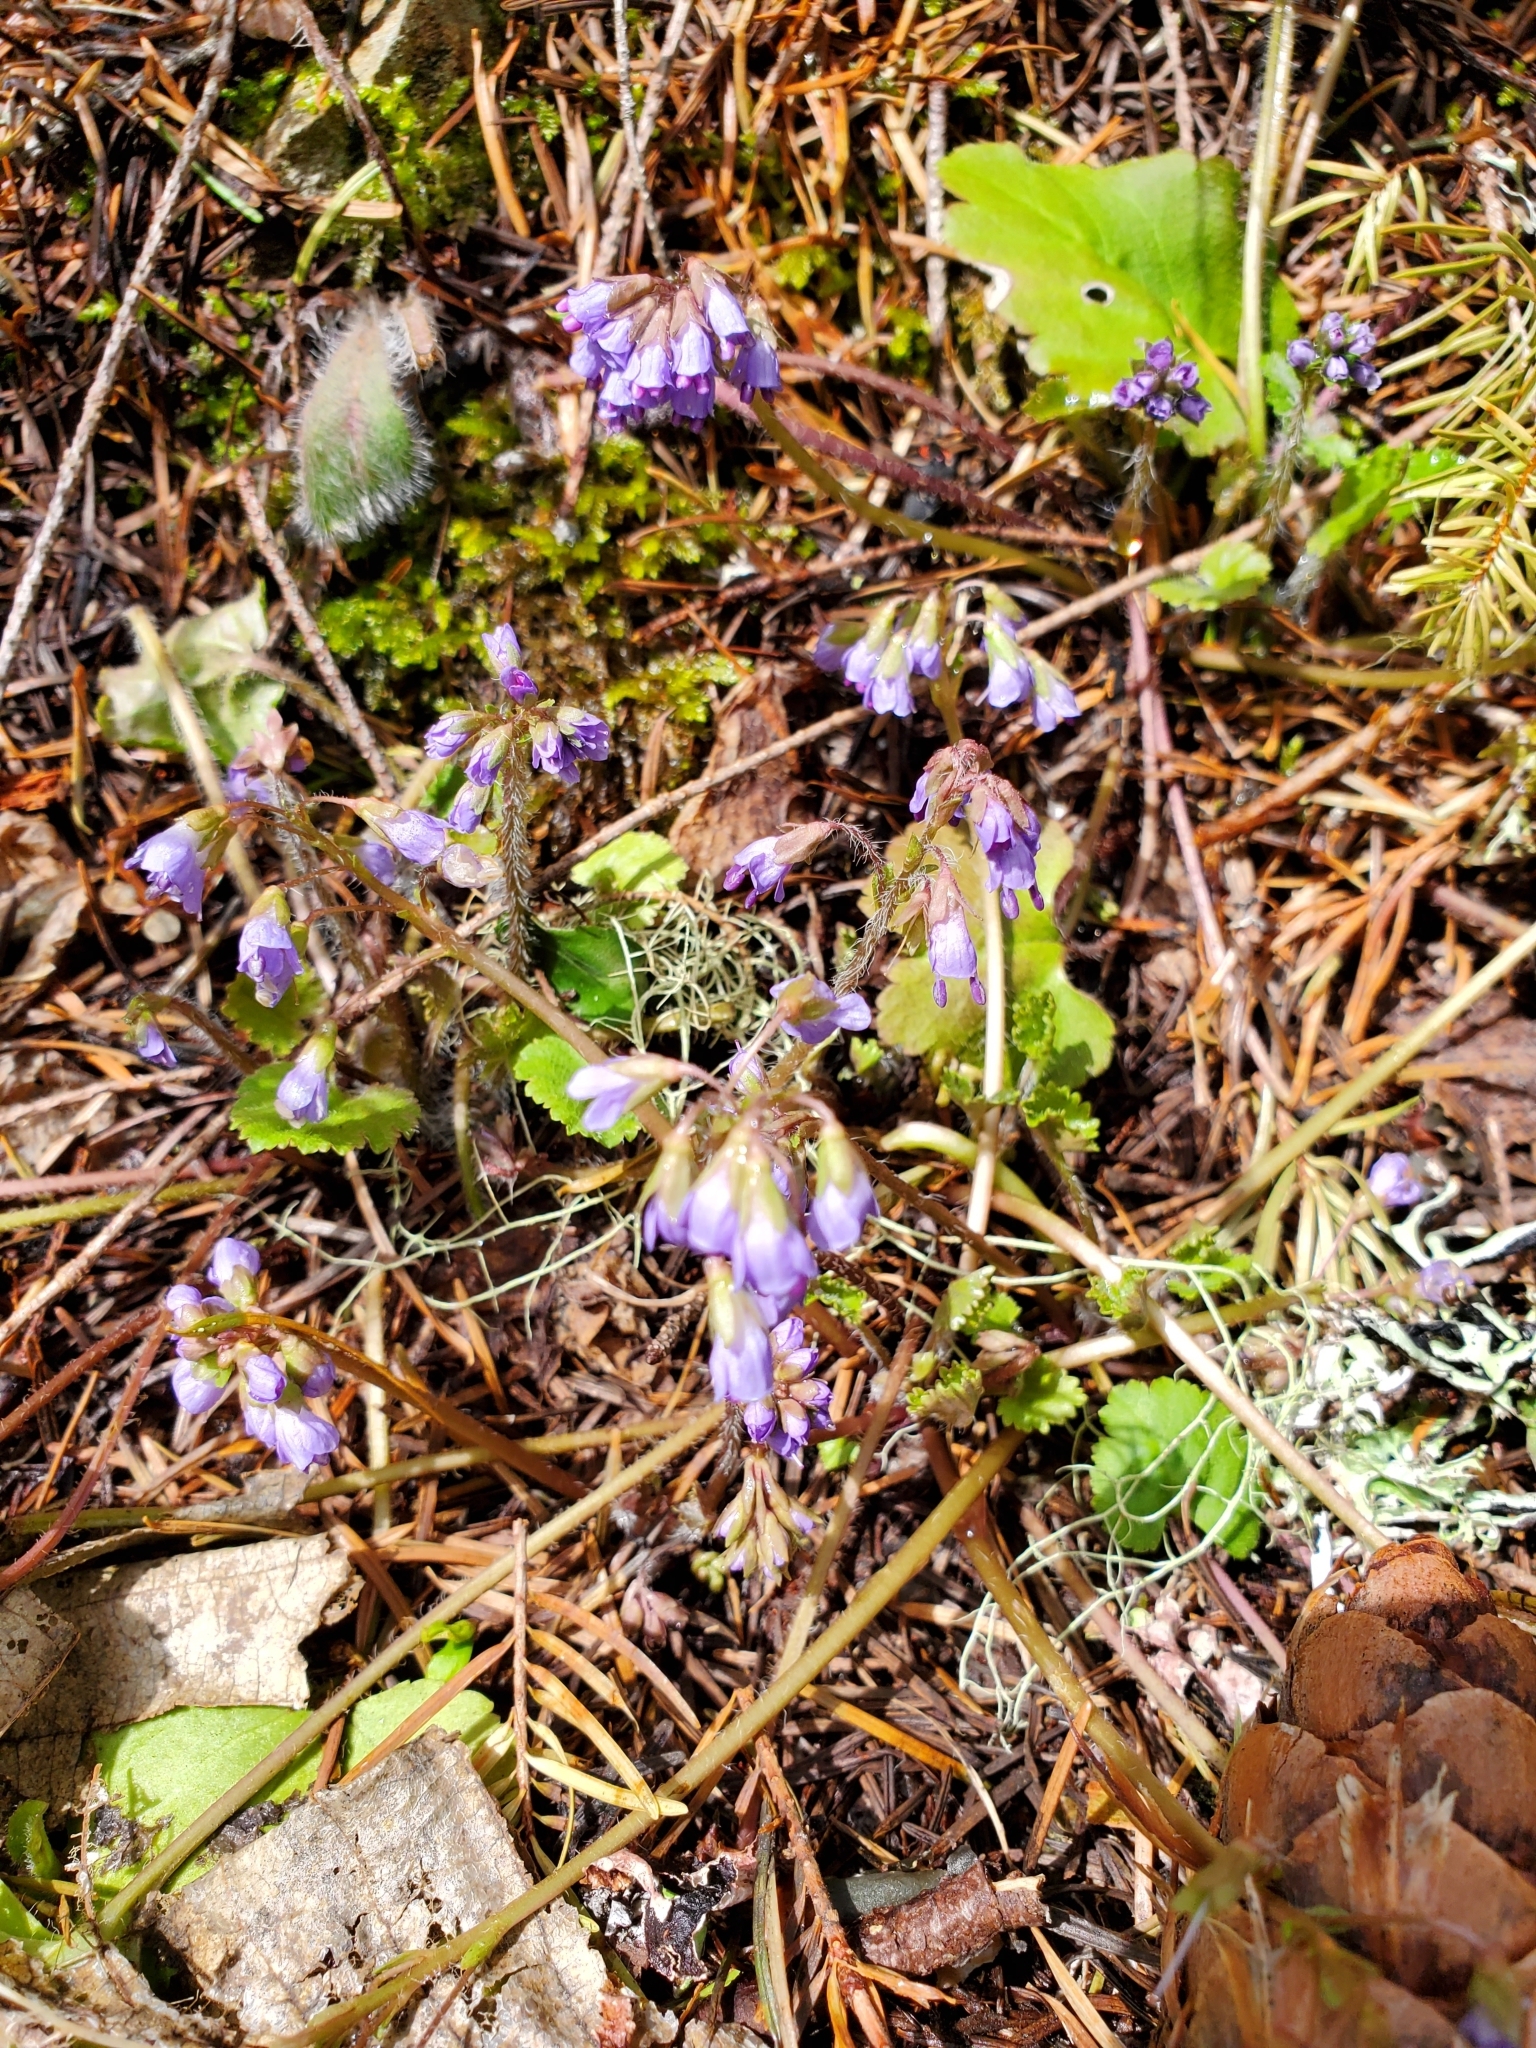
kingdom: Plantae
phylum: Tracheophyta
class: Magnoliopsida
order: Lamiales
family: Plantaginaceae
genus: Synthyris
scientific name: Synthyris reniformis
